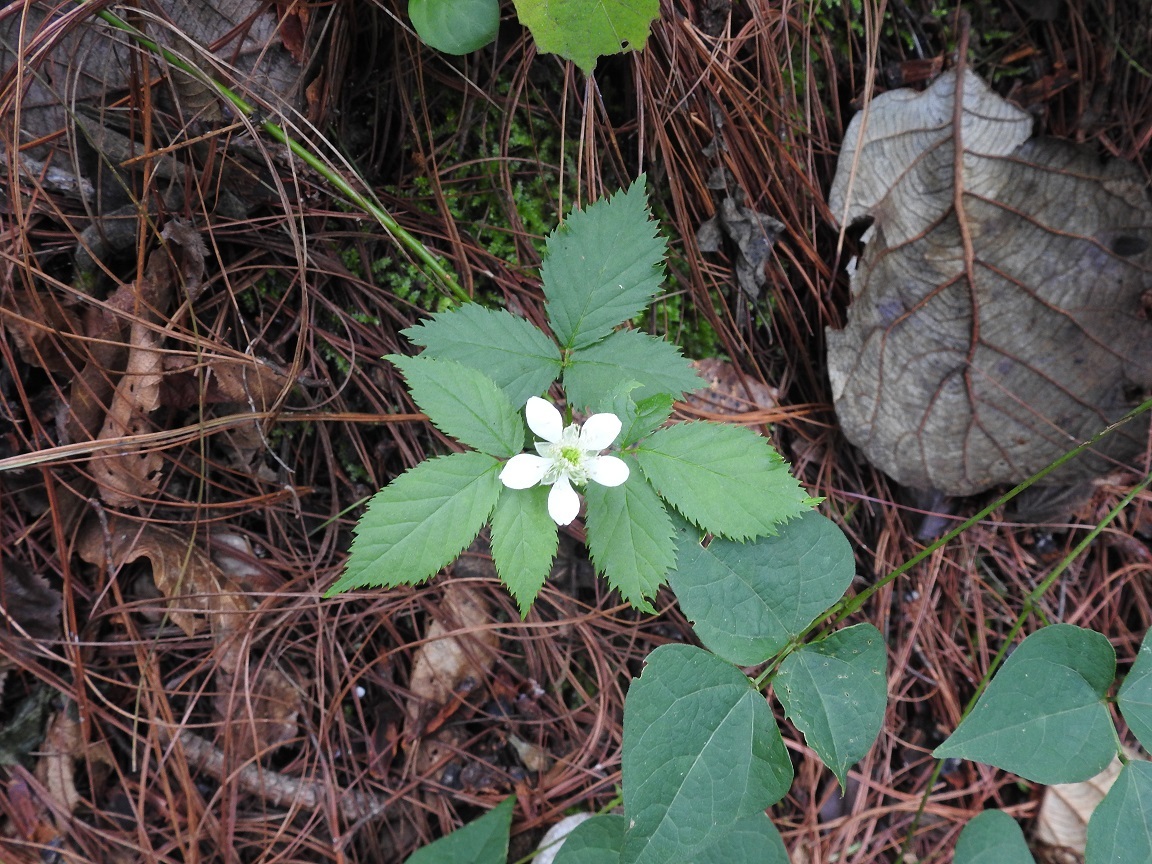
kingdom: Plantae
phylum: Tracheophyta
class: Magnoliopsida
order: Rosales
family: Rosaceae
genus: Rubus
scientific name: Rubus adenotrichos
